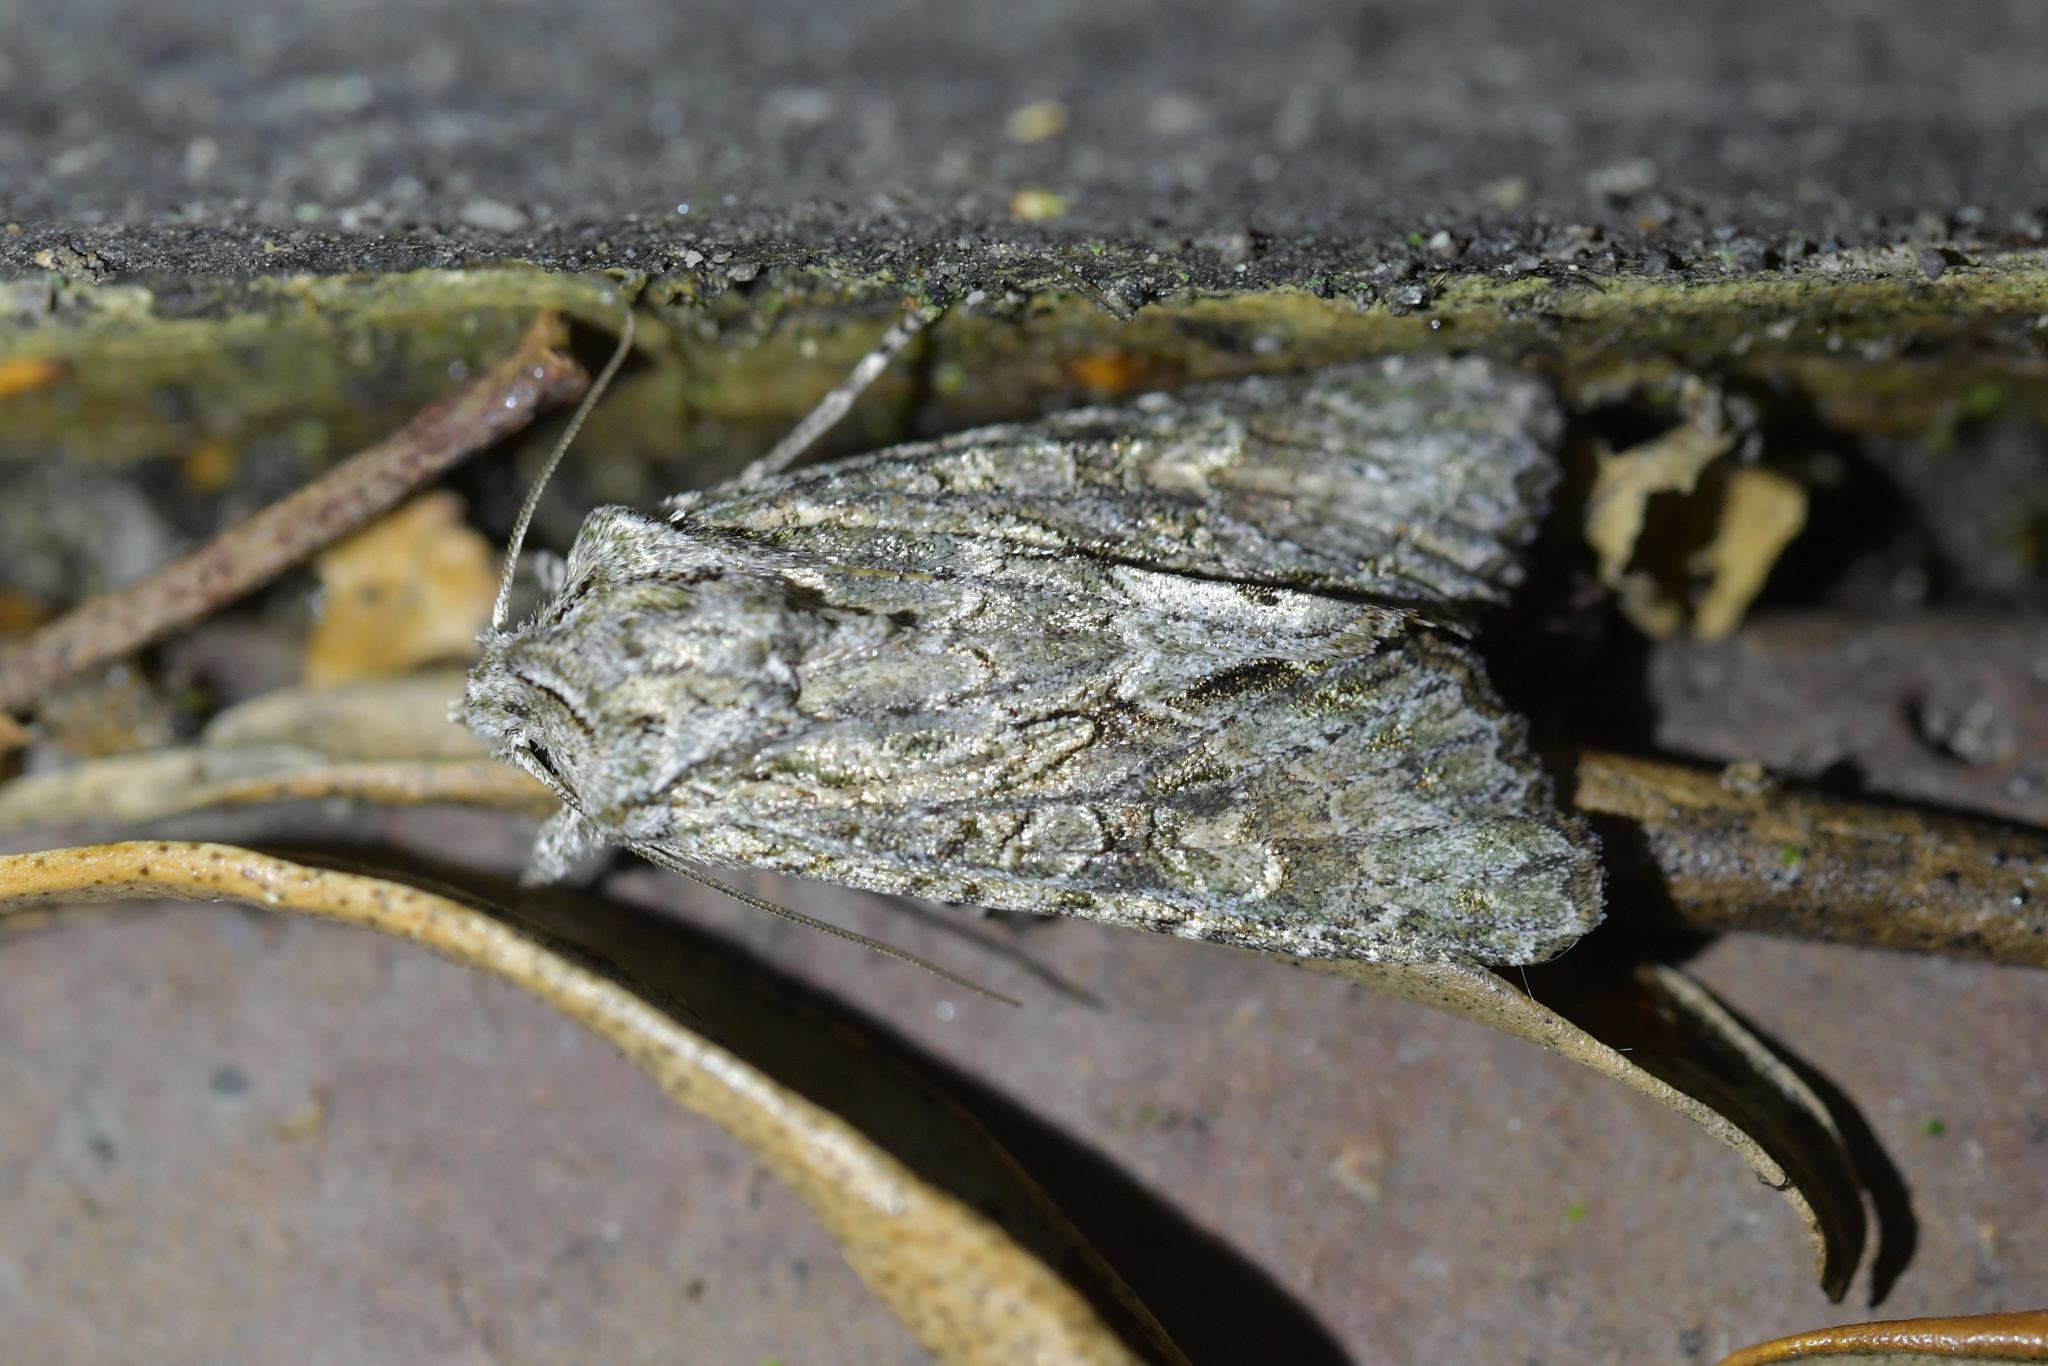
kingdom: Animalia
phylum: Arthropoda
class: Insecta
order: Lepidoptera
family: Noctuidae
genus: Ichneutica
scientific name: Ichneutica mutans
